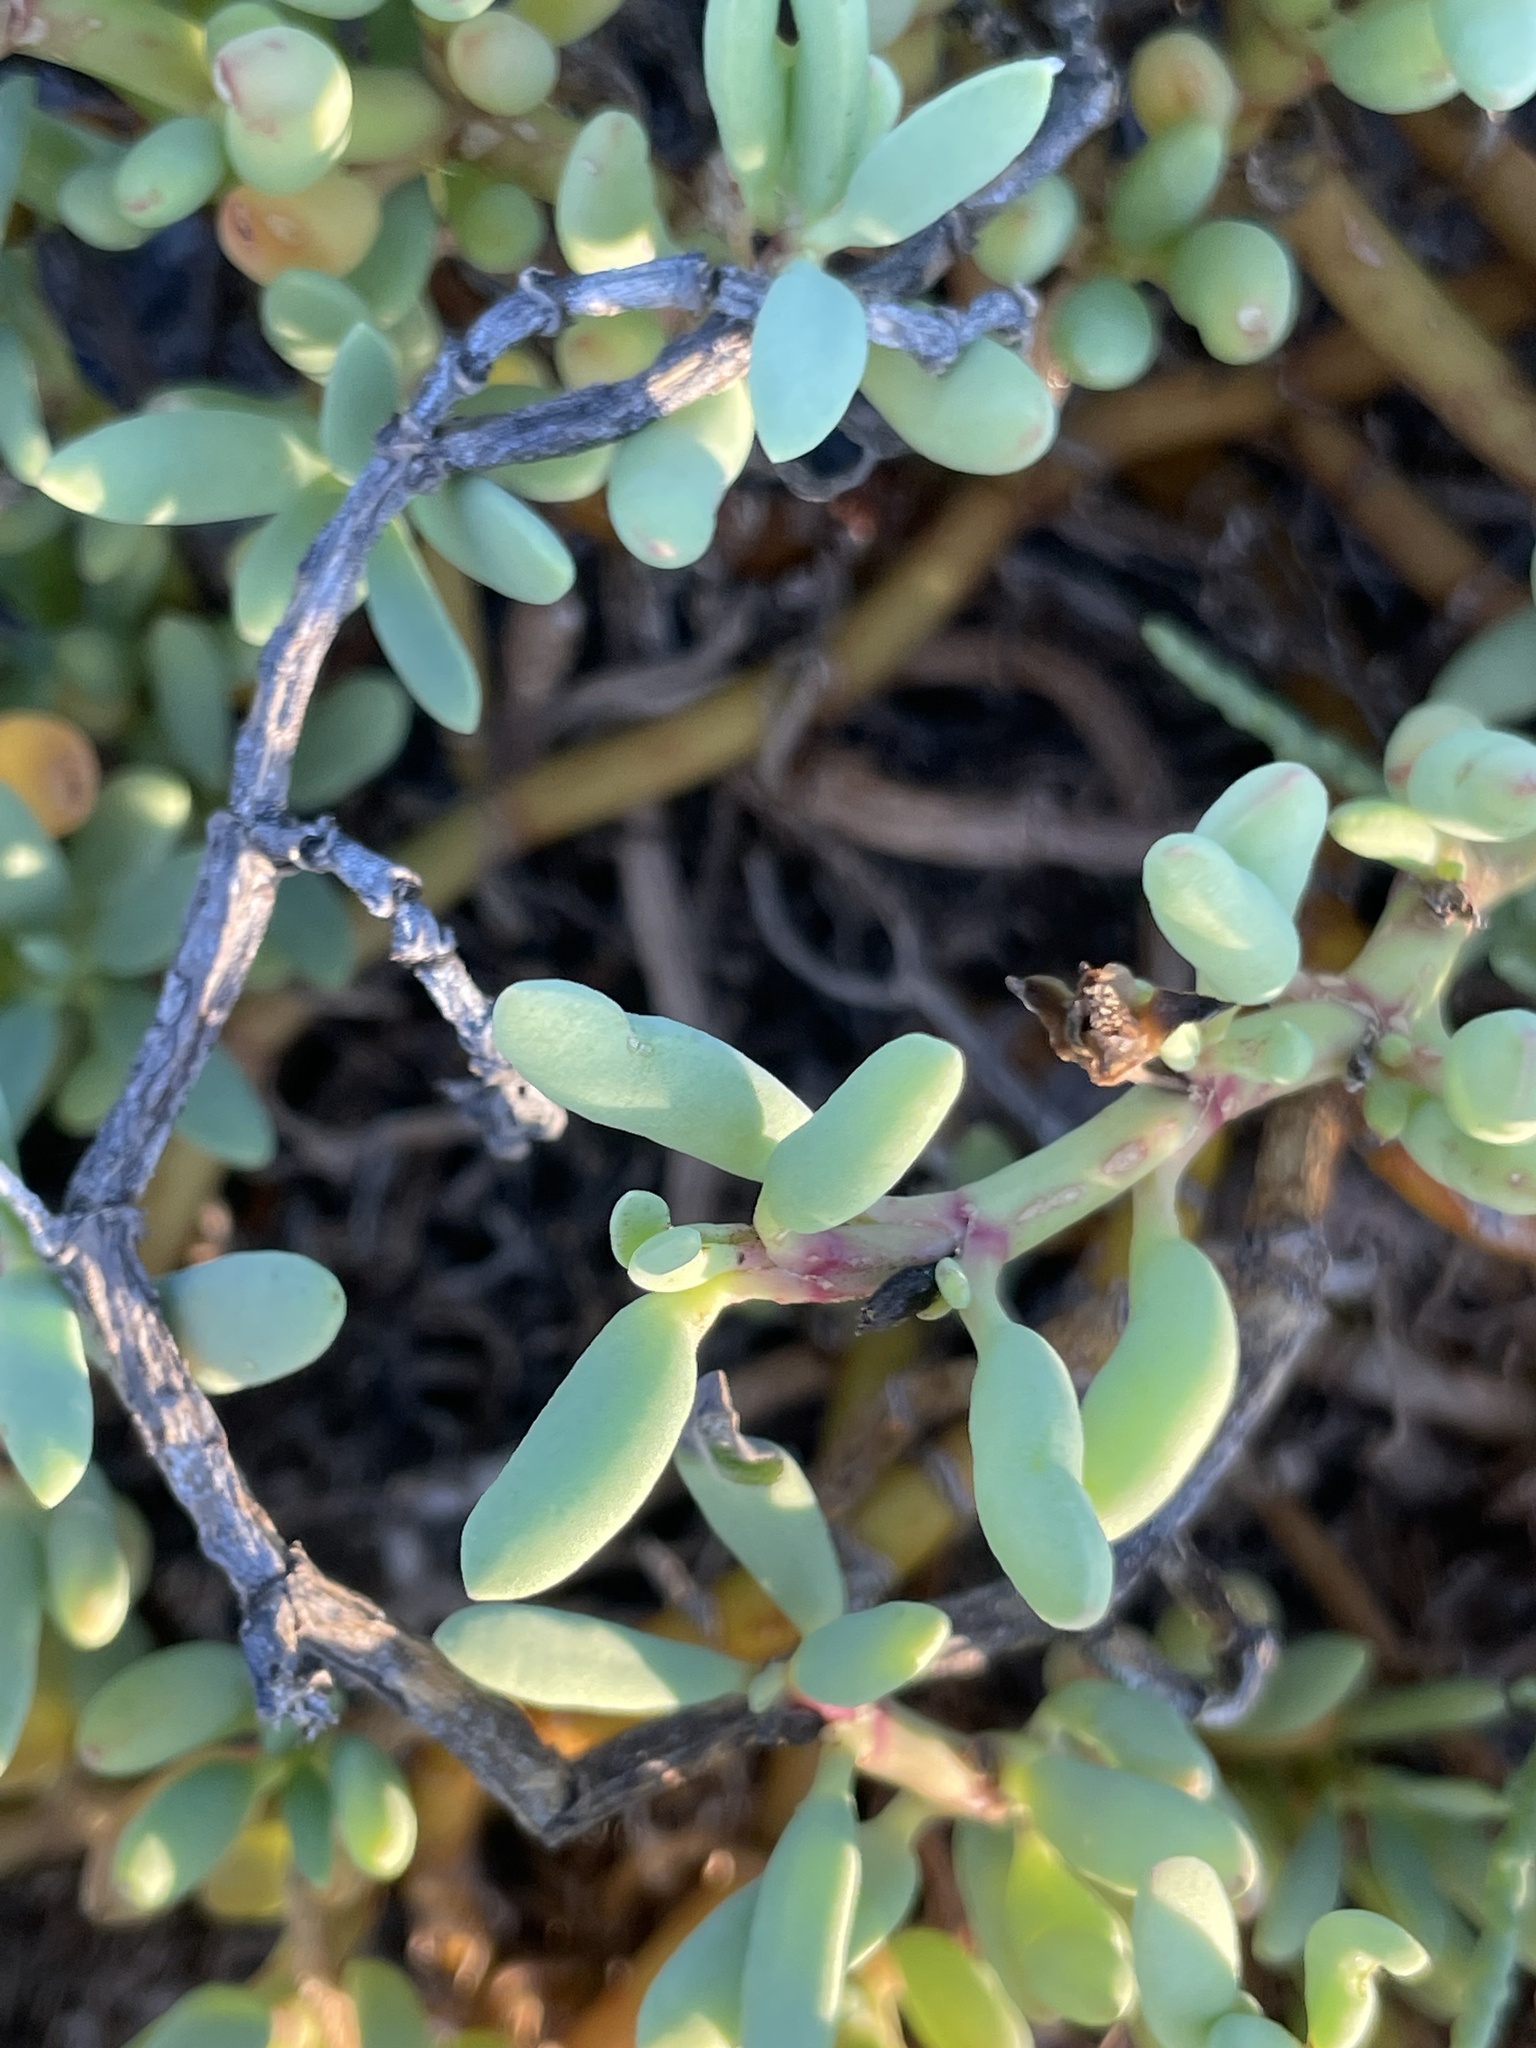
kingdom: Plantae
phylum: Tracheophyta
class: Magnoliopsida
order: Caryophyllales
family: Aizoaceae
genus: Sesuvium
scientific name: Sesuvium portulacastrum
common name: Sea-purslane
